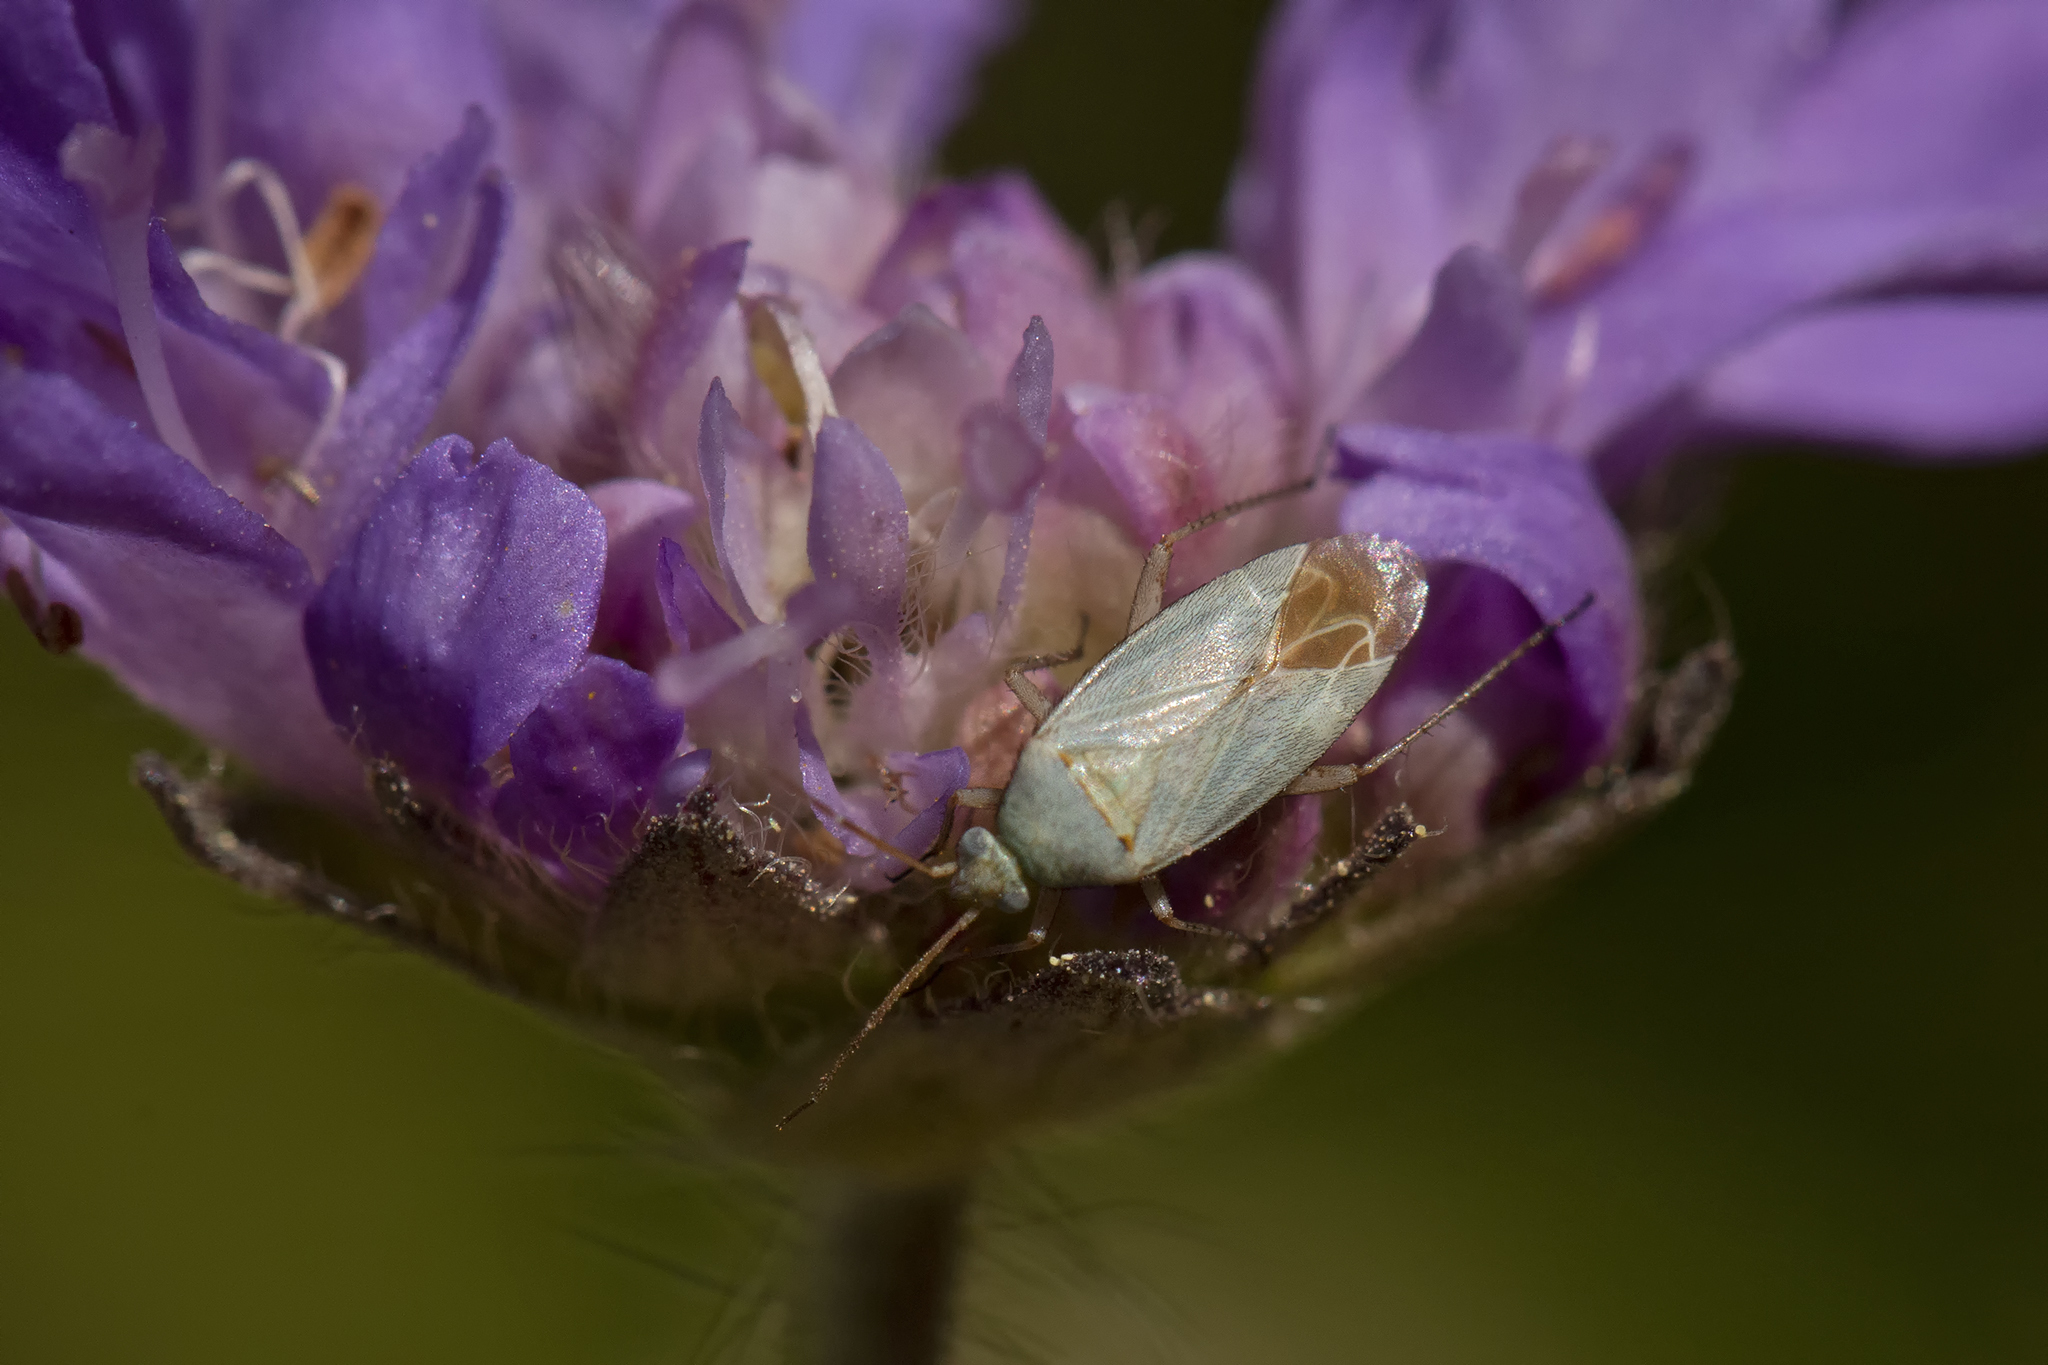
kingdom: Animalia
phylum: Arthropoda
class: Insecta
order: Hemiptera
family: Miridae
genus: Placochilus
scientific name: Placochilus seladonicus
